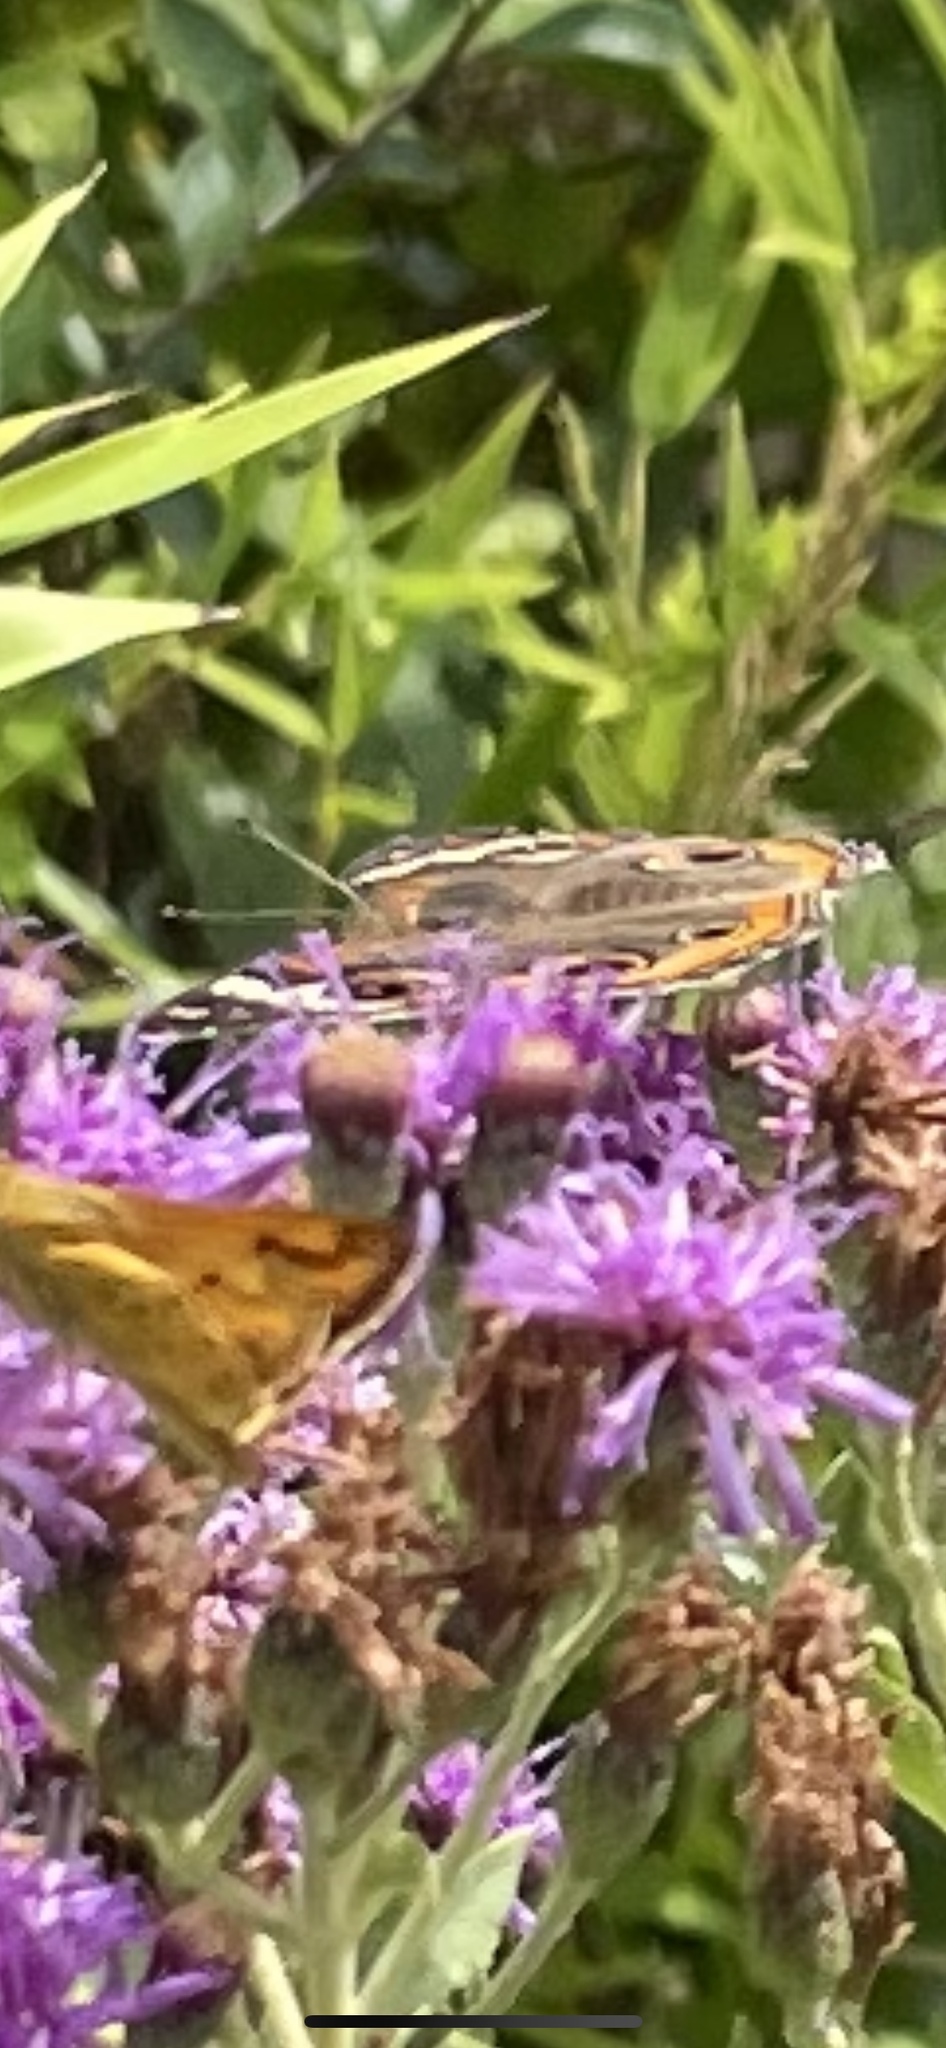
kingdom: Animalia
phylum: Arthropoda
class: Insecta
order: Lepidoptera
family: Nymphalidae
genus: Junonia
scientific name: Junonia coenia
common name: Common buckeye
